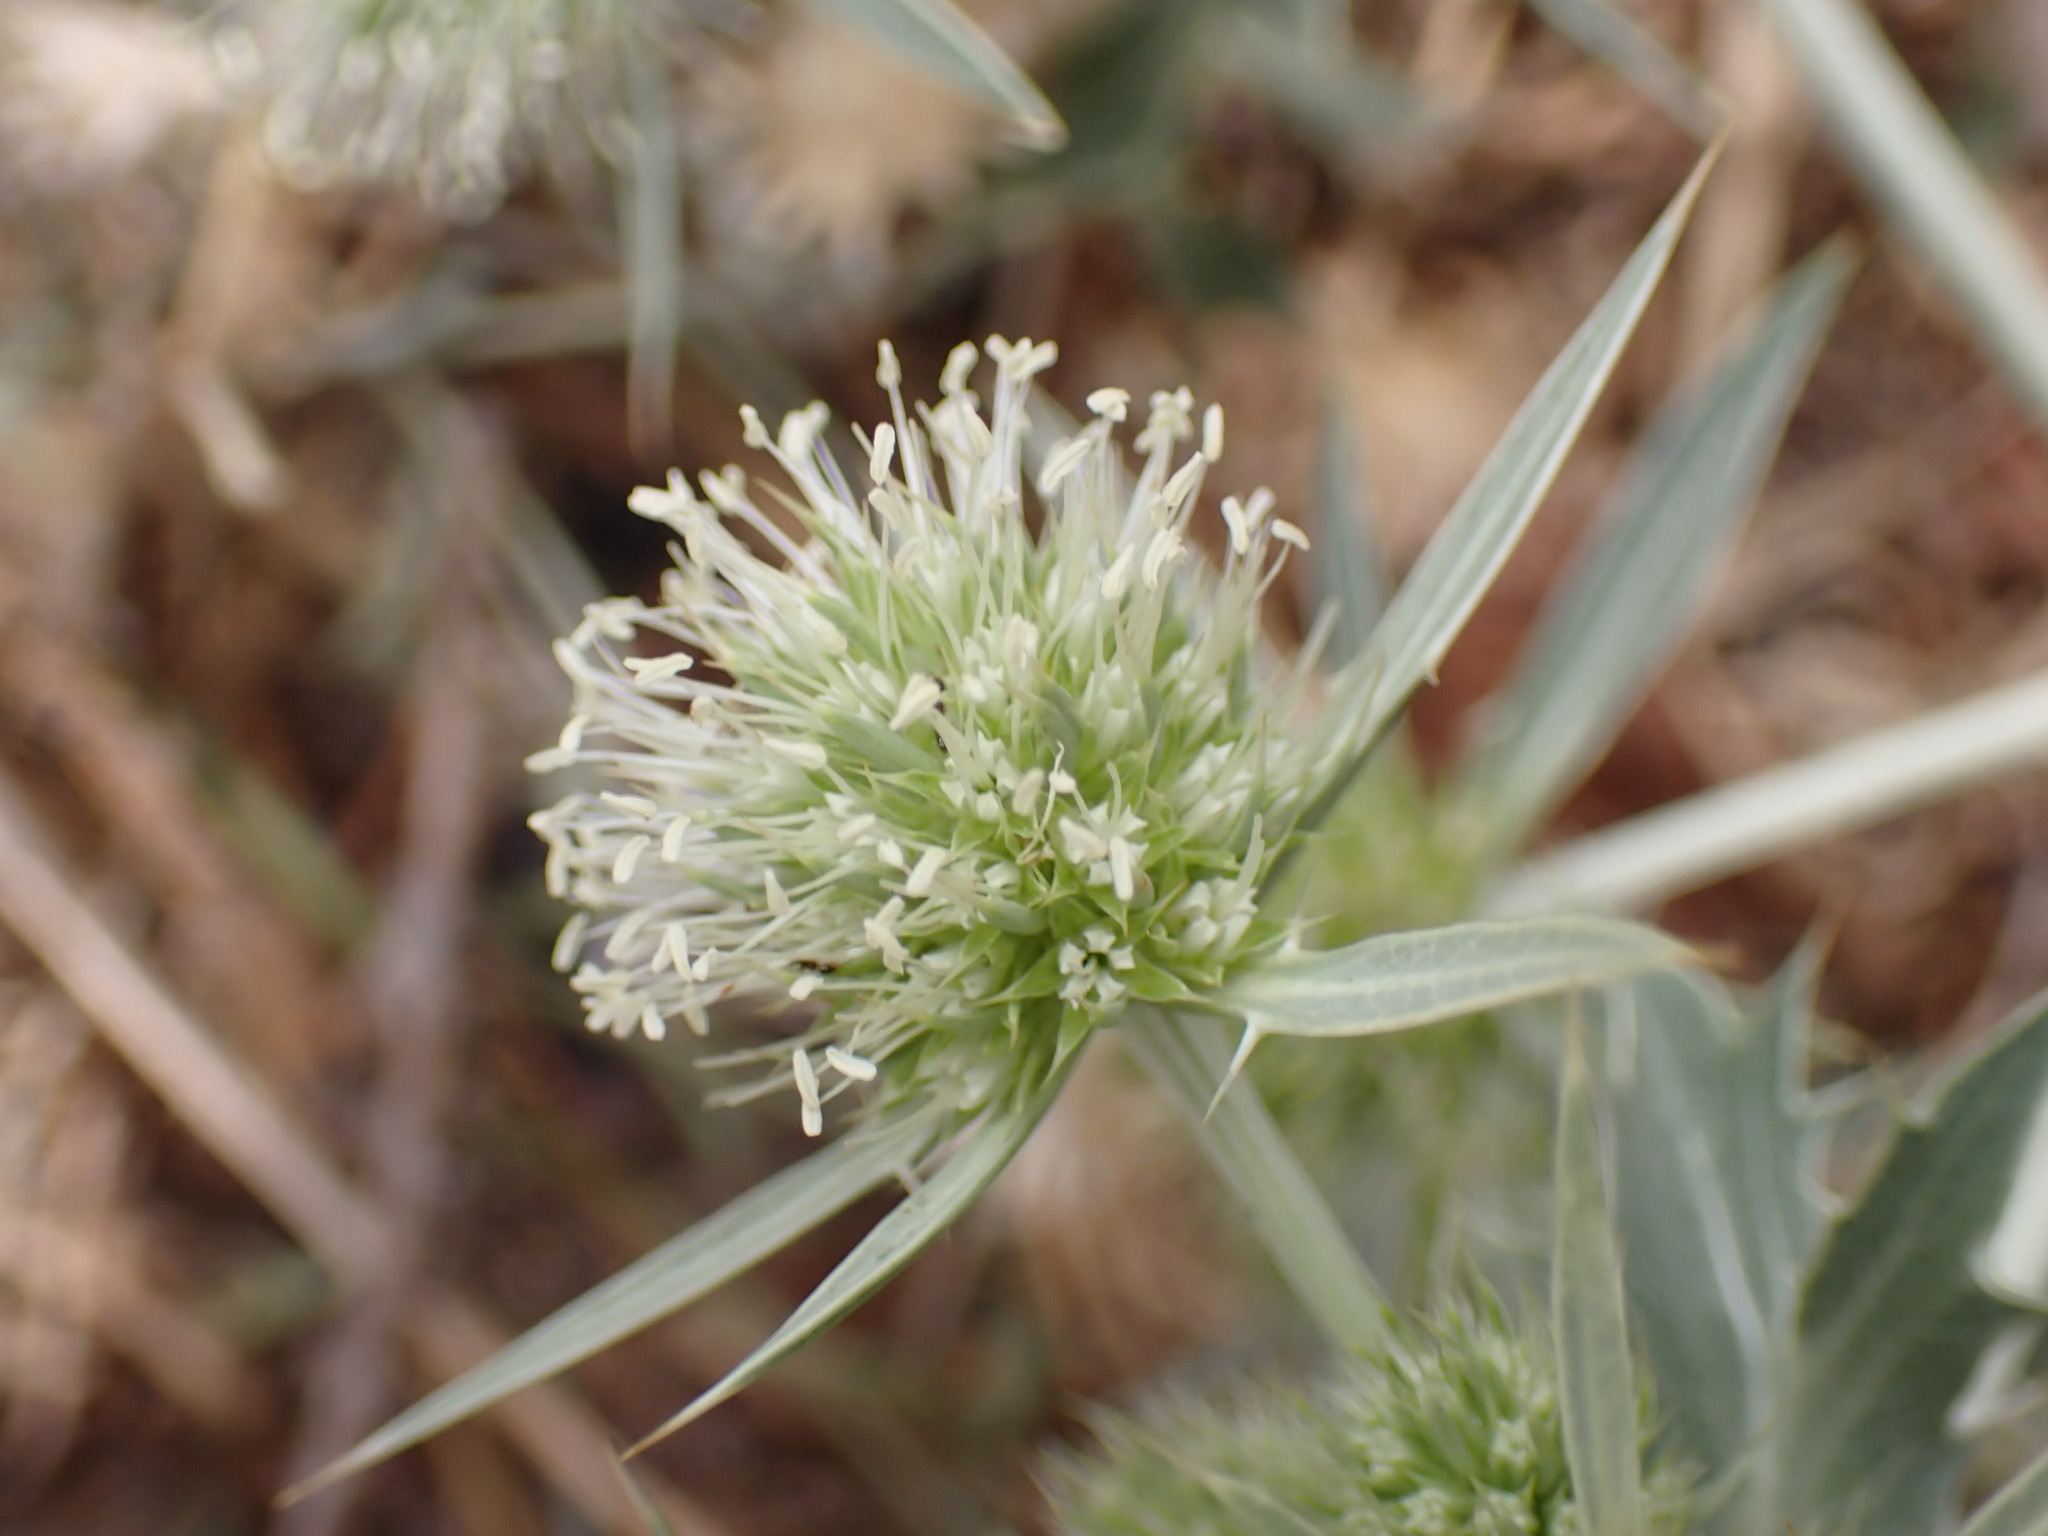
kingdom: Plantae
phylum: Tracheophyta
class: Magnoliopsida
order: Apiales
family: Apiaceae
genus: Eryngium
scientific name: Eryngium campestre
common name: Field eryngo
